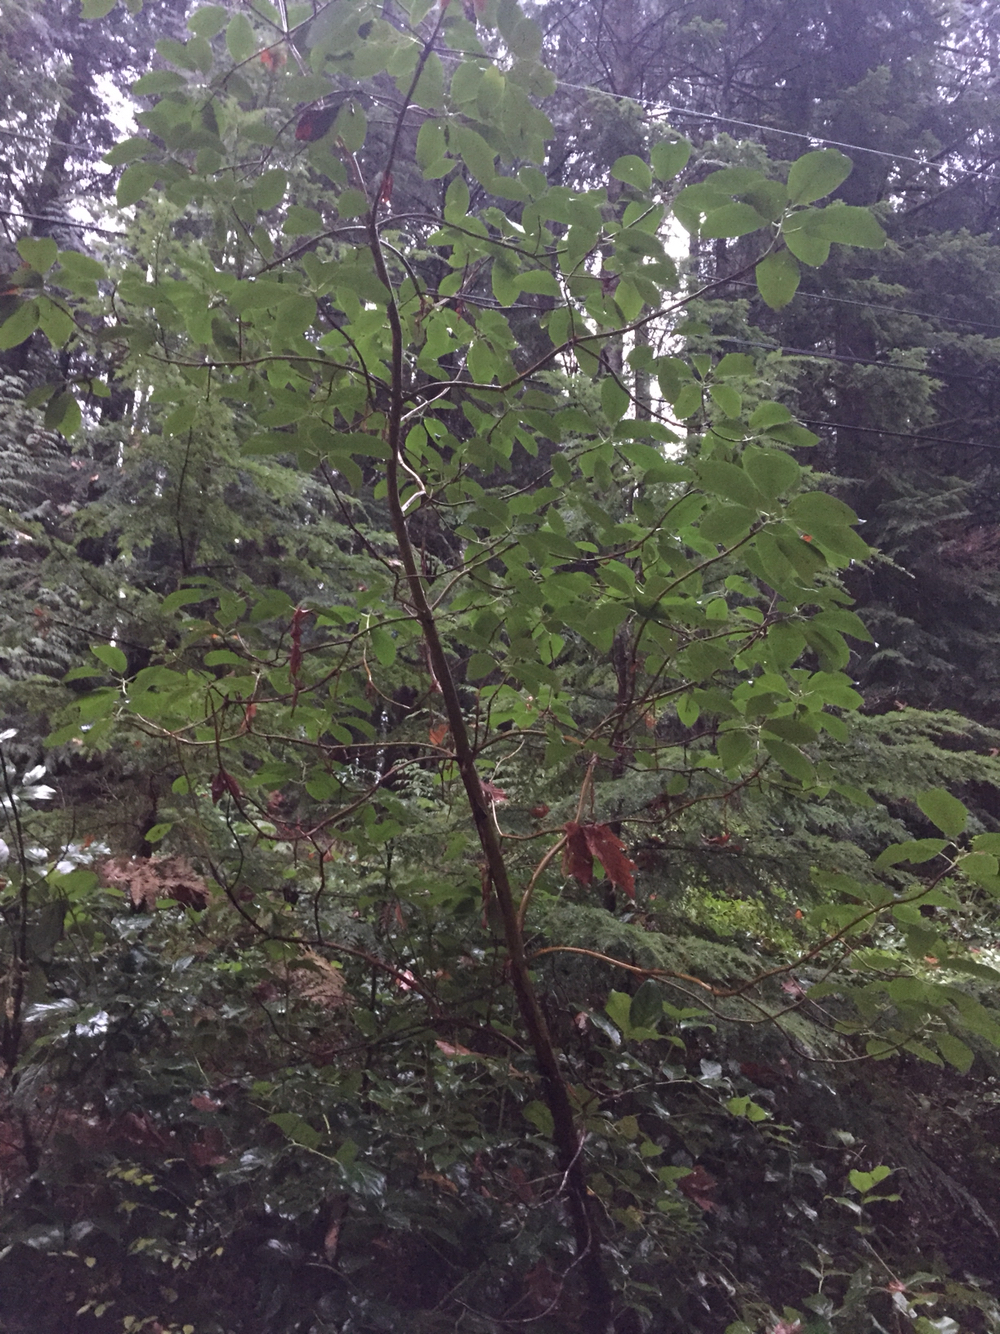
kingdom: Plantae
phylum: Tracheophyta
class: Magnoliopsida
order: Ericales
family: Ericaceae
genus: Arbutus
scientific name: Arbutus menziesii
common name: Pacific madrone
